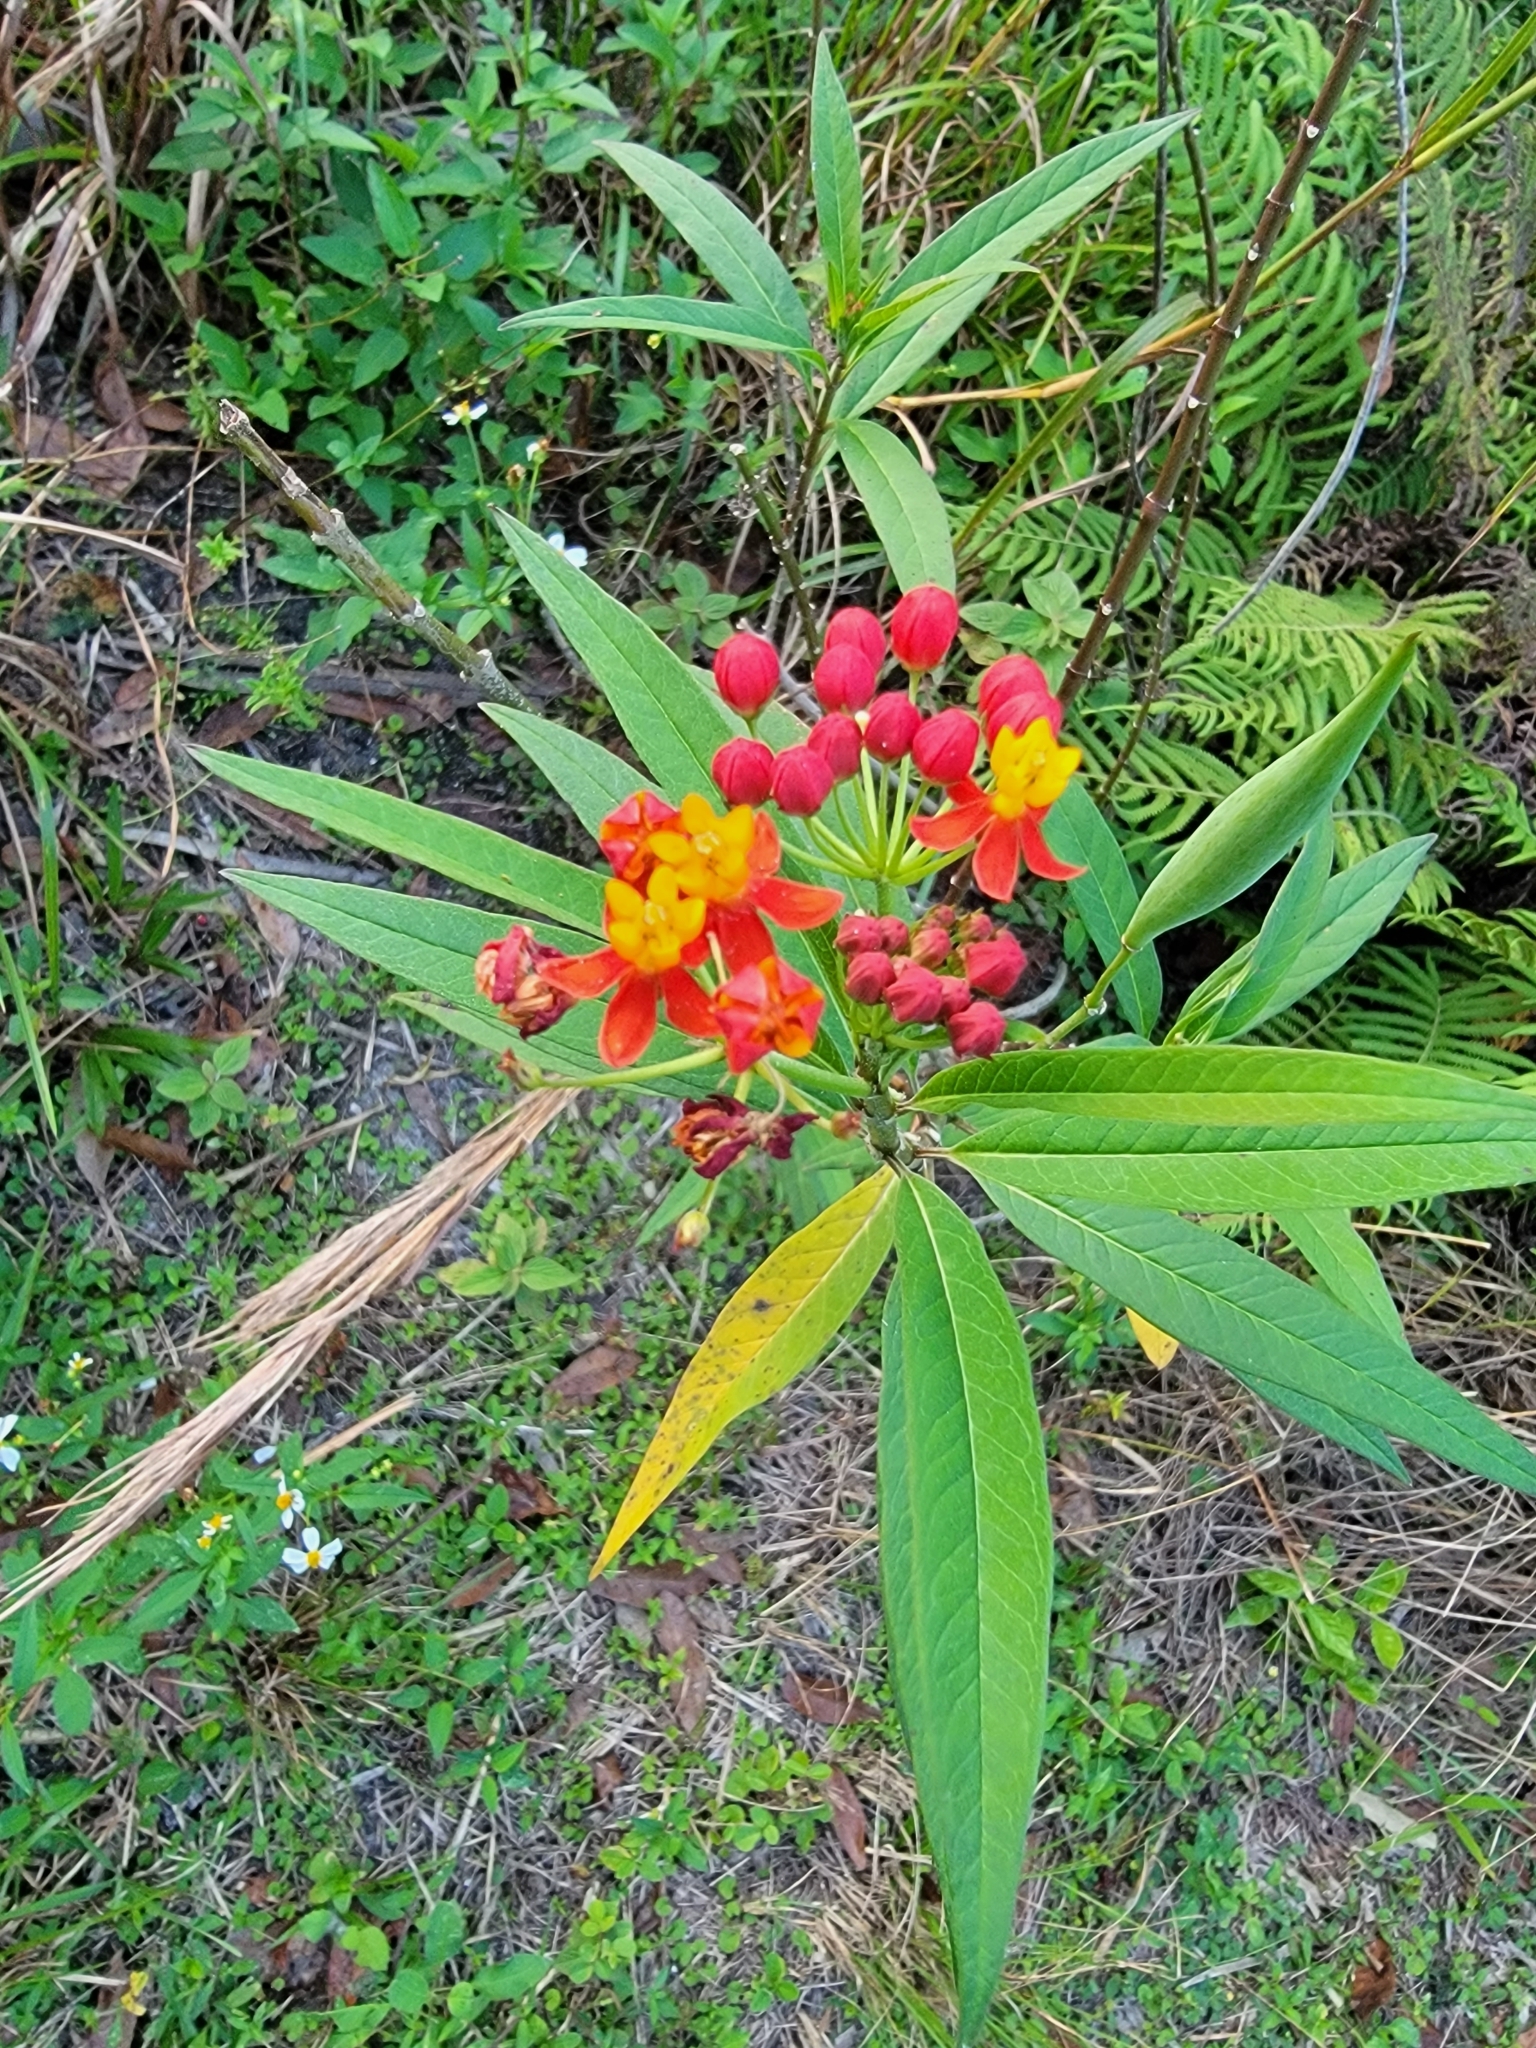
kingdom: Plantae
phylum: Tracheophyta
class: Magnoliopsida
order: Gentianales
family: Apocynaceae
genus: Asclepias
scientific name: Asclepias curassavica
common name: Bloodflower
